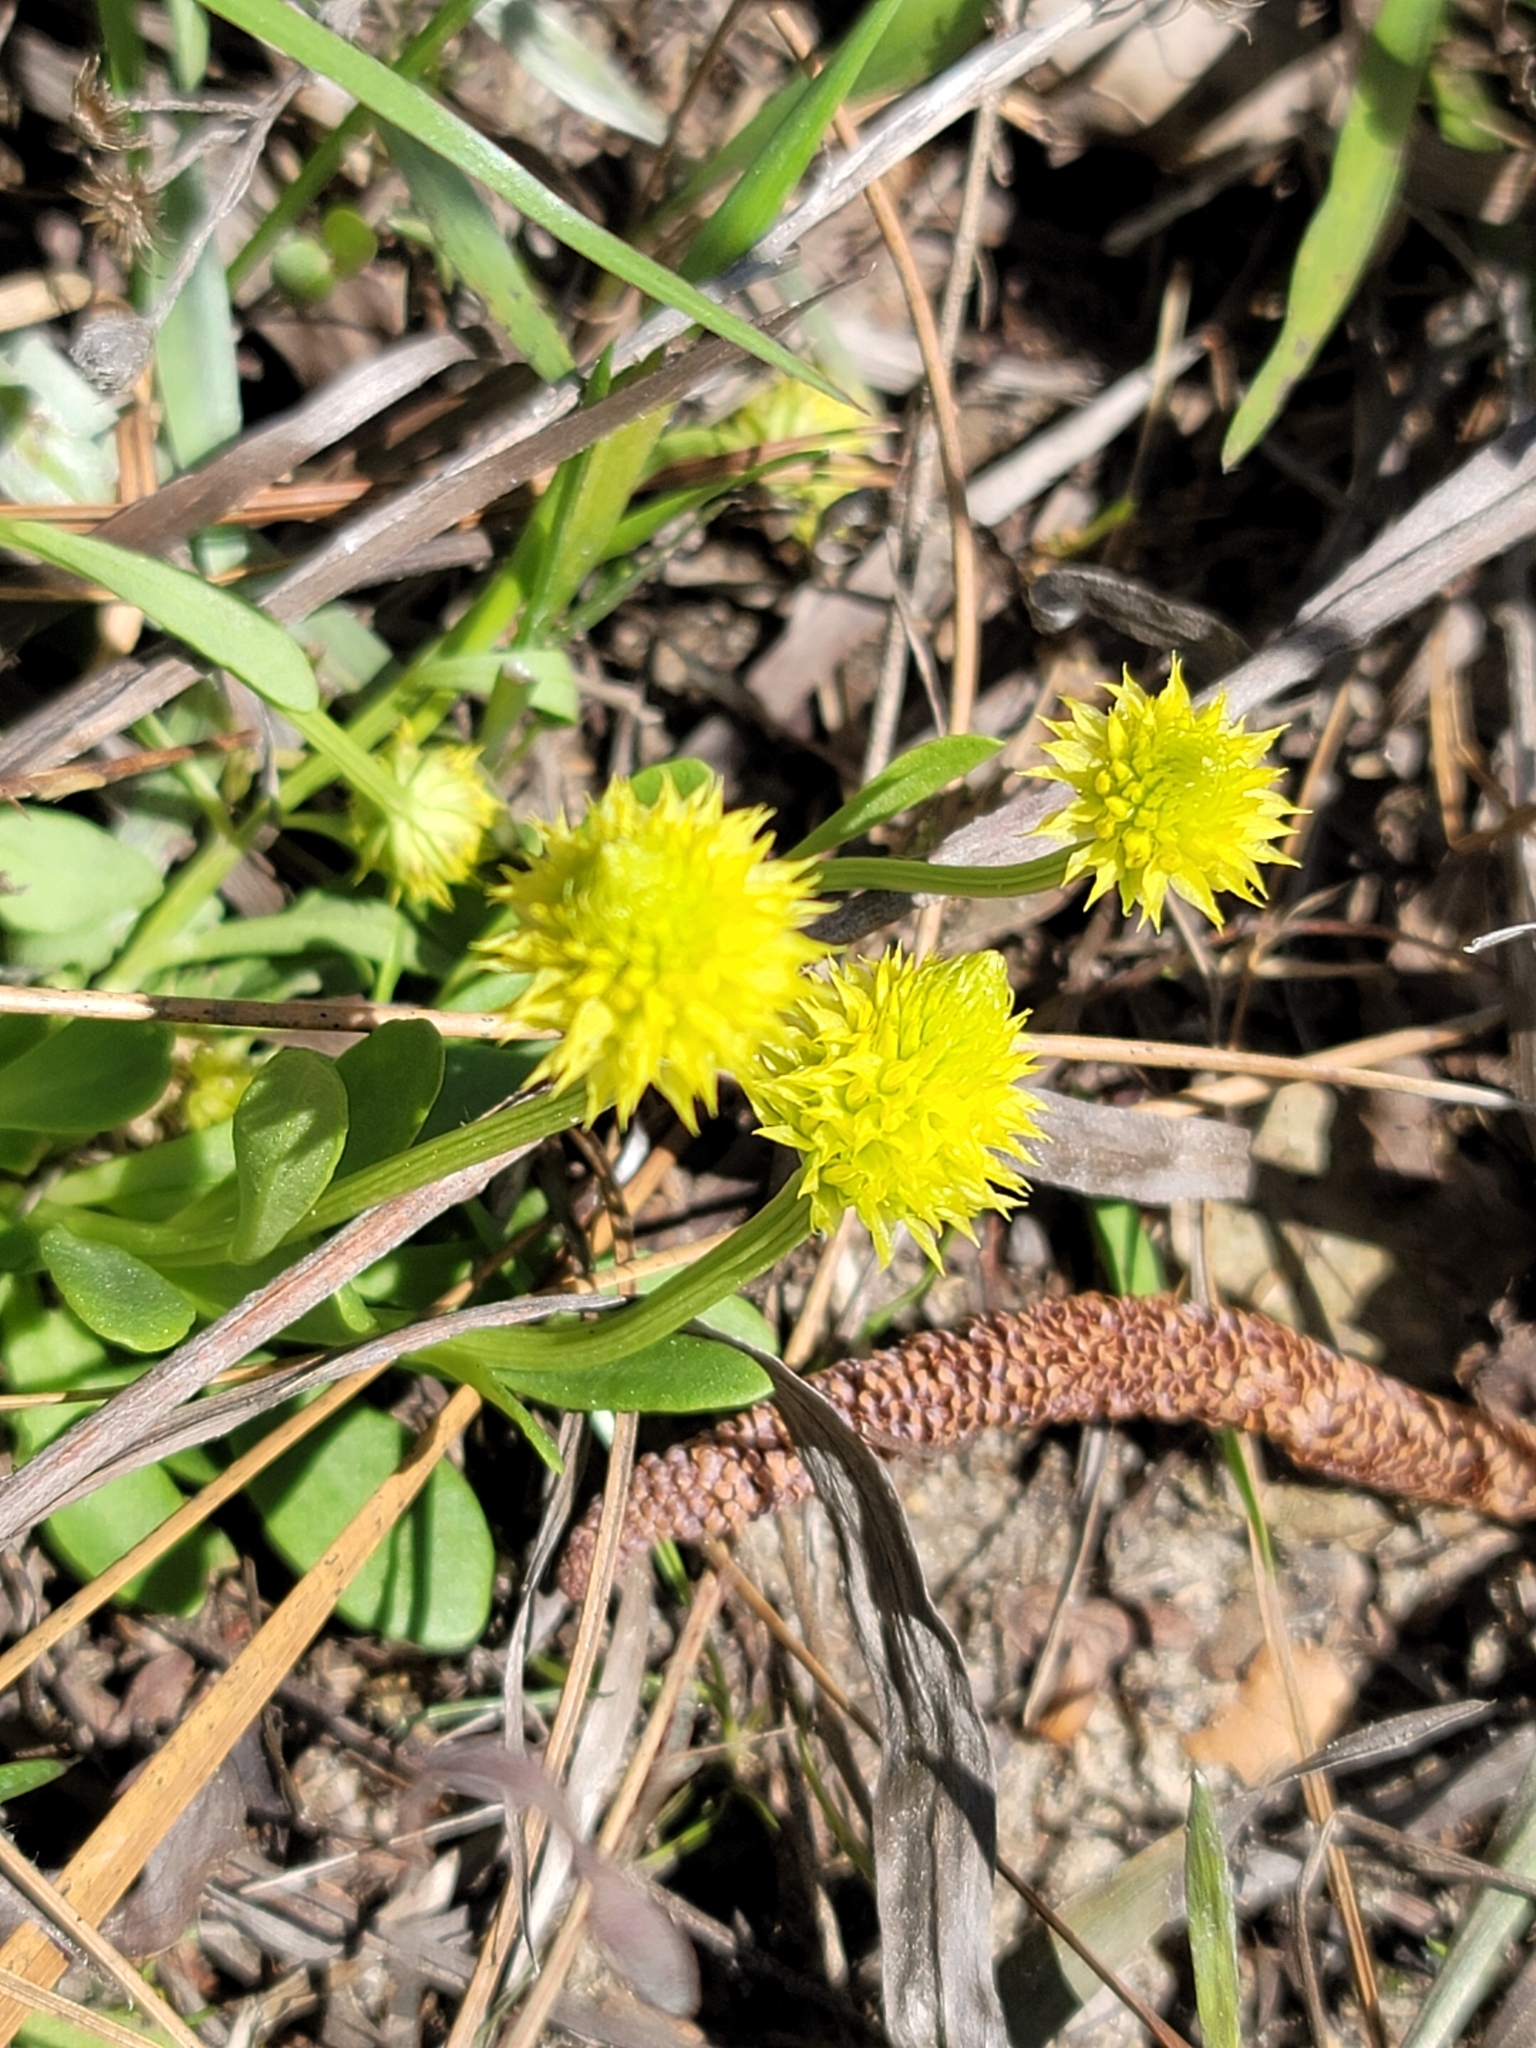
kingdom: Plantae
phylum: Tracheophyta
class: Magnoliopsida
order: Fabales
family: Polygalaceae
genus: Polygala
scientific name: Polygala nana
